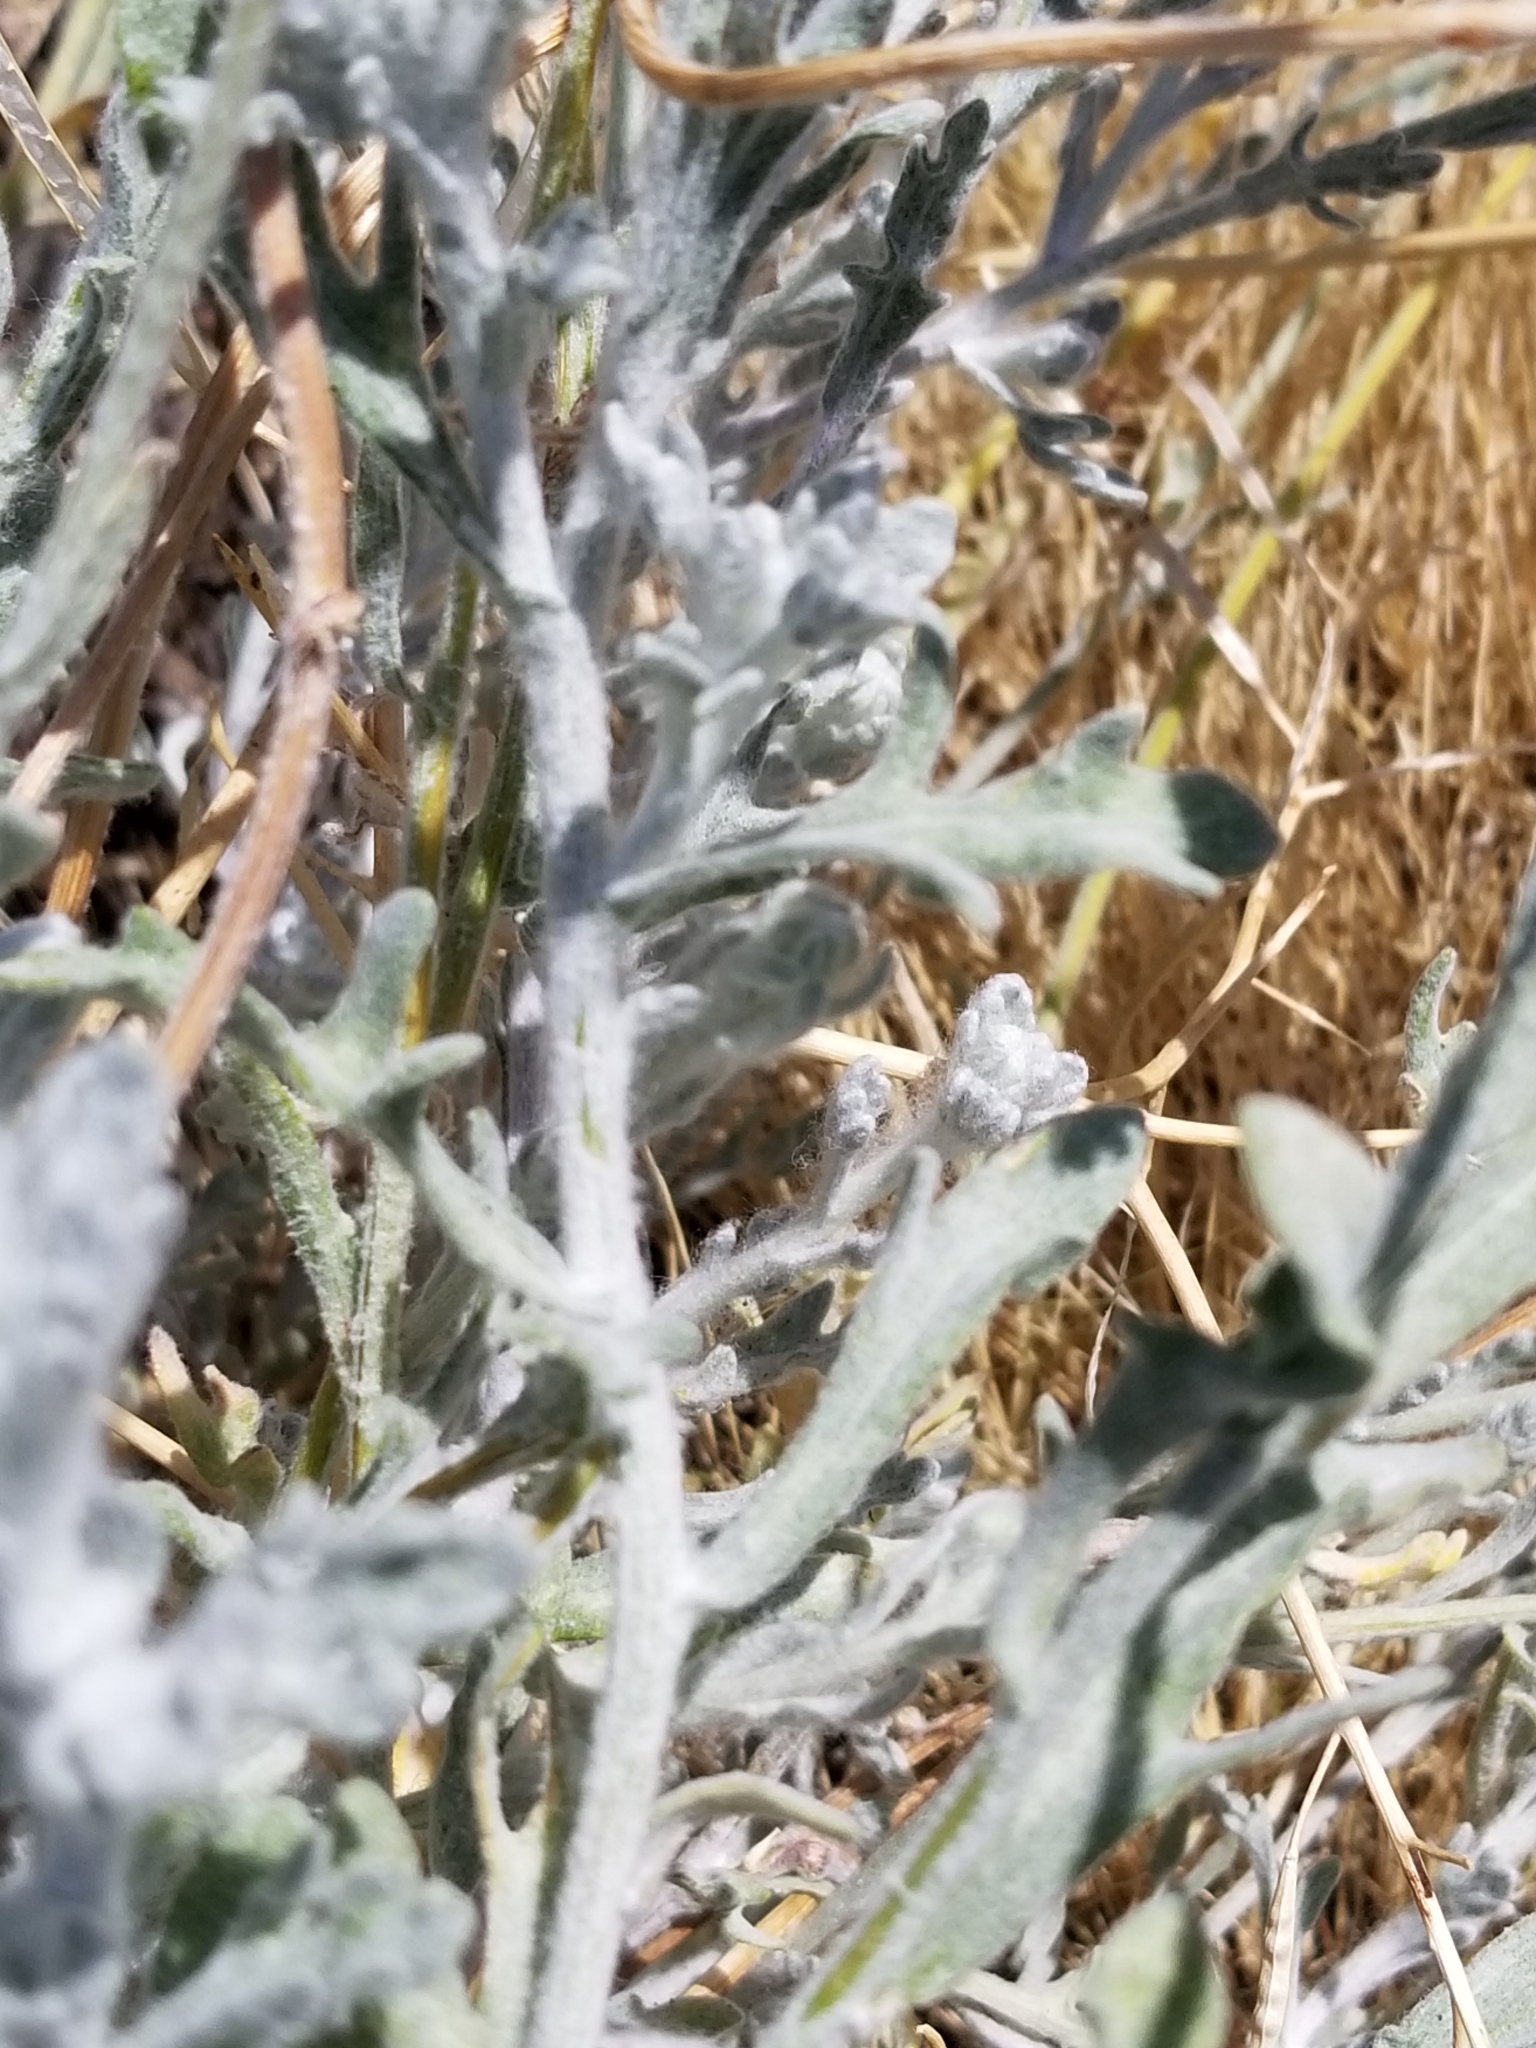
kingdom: Plantae
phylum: Tracheophyta
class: Magnoliopsida
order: Asterales
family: Asteraceae
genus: Baileya
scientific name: Baileya multiradiata
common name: Desert-marigold
